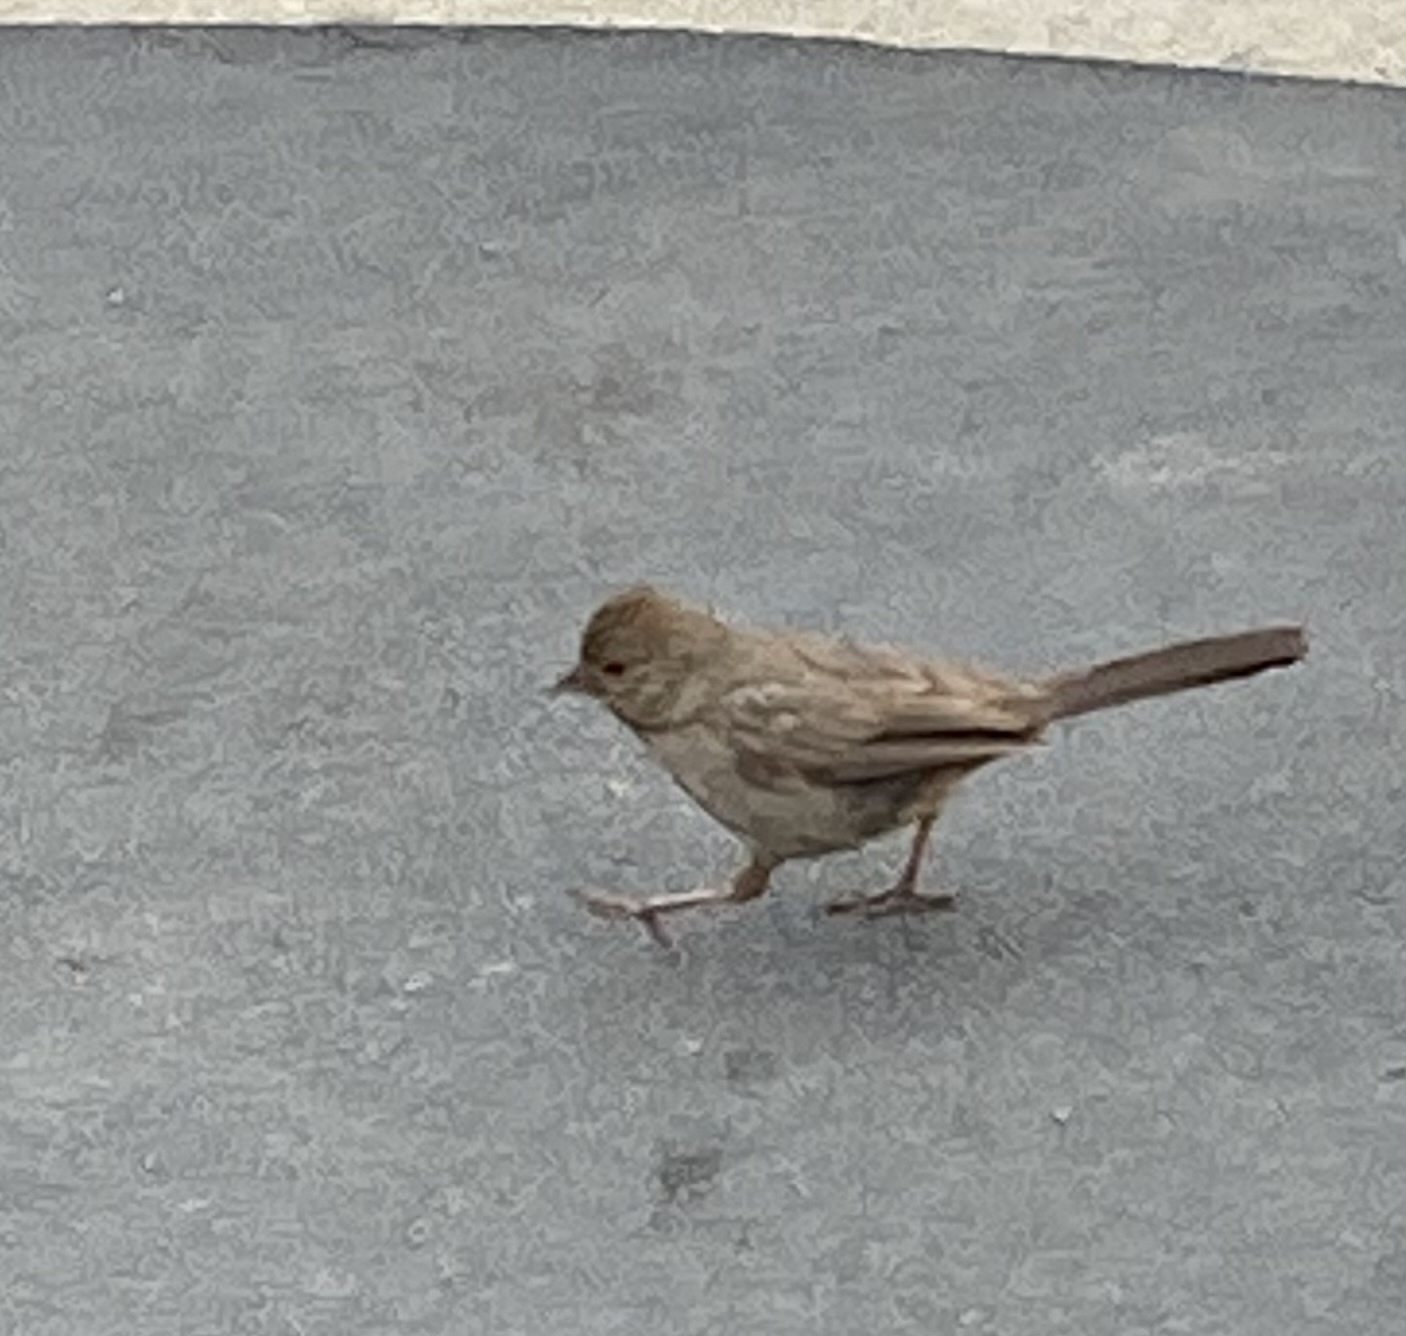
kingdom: Animalia
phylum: Chordata
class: Aves
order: Passeriformes
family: Passerellidae
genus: Melozone
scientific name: Melozone crissalis
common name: California towhee
